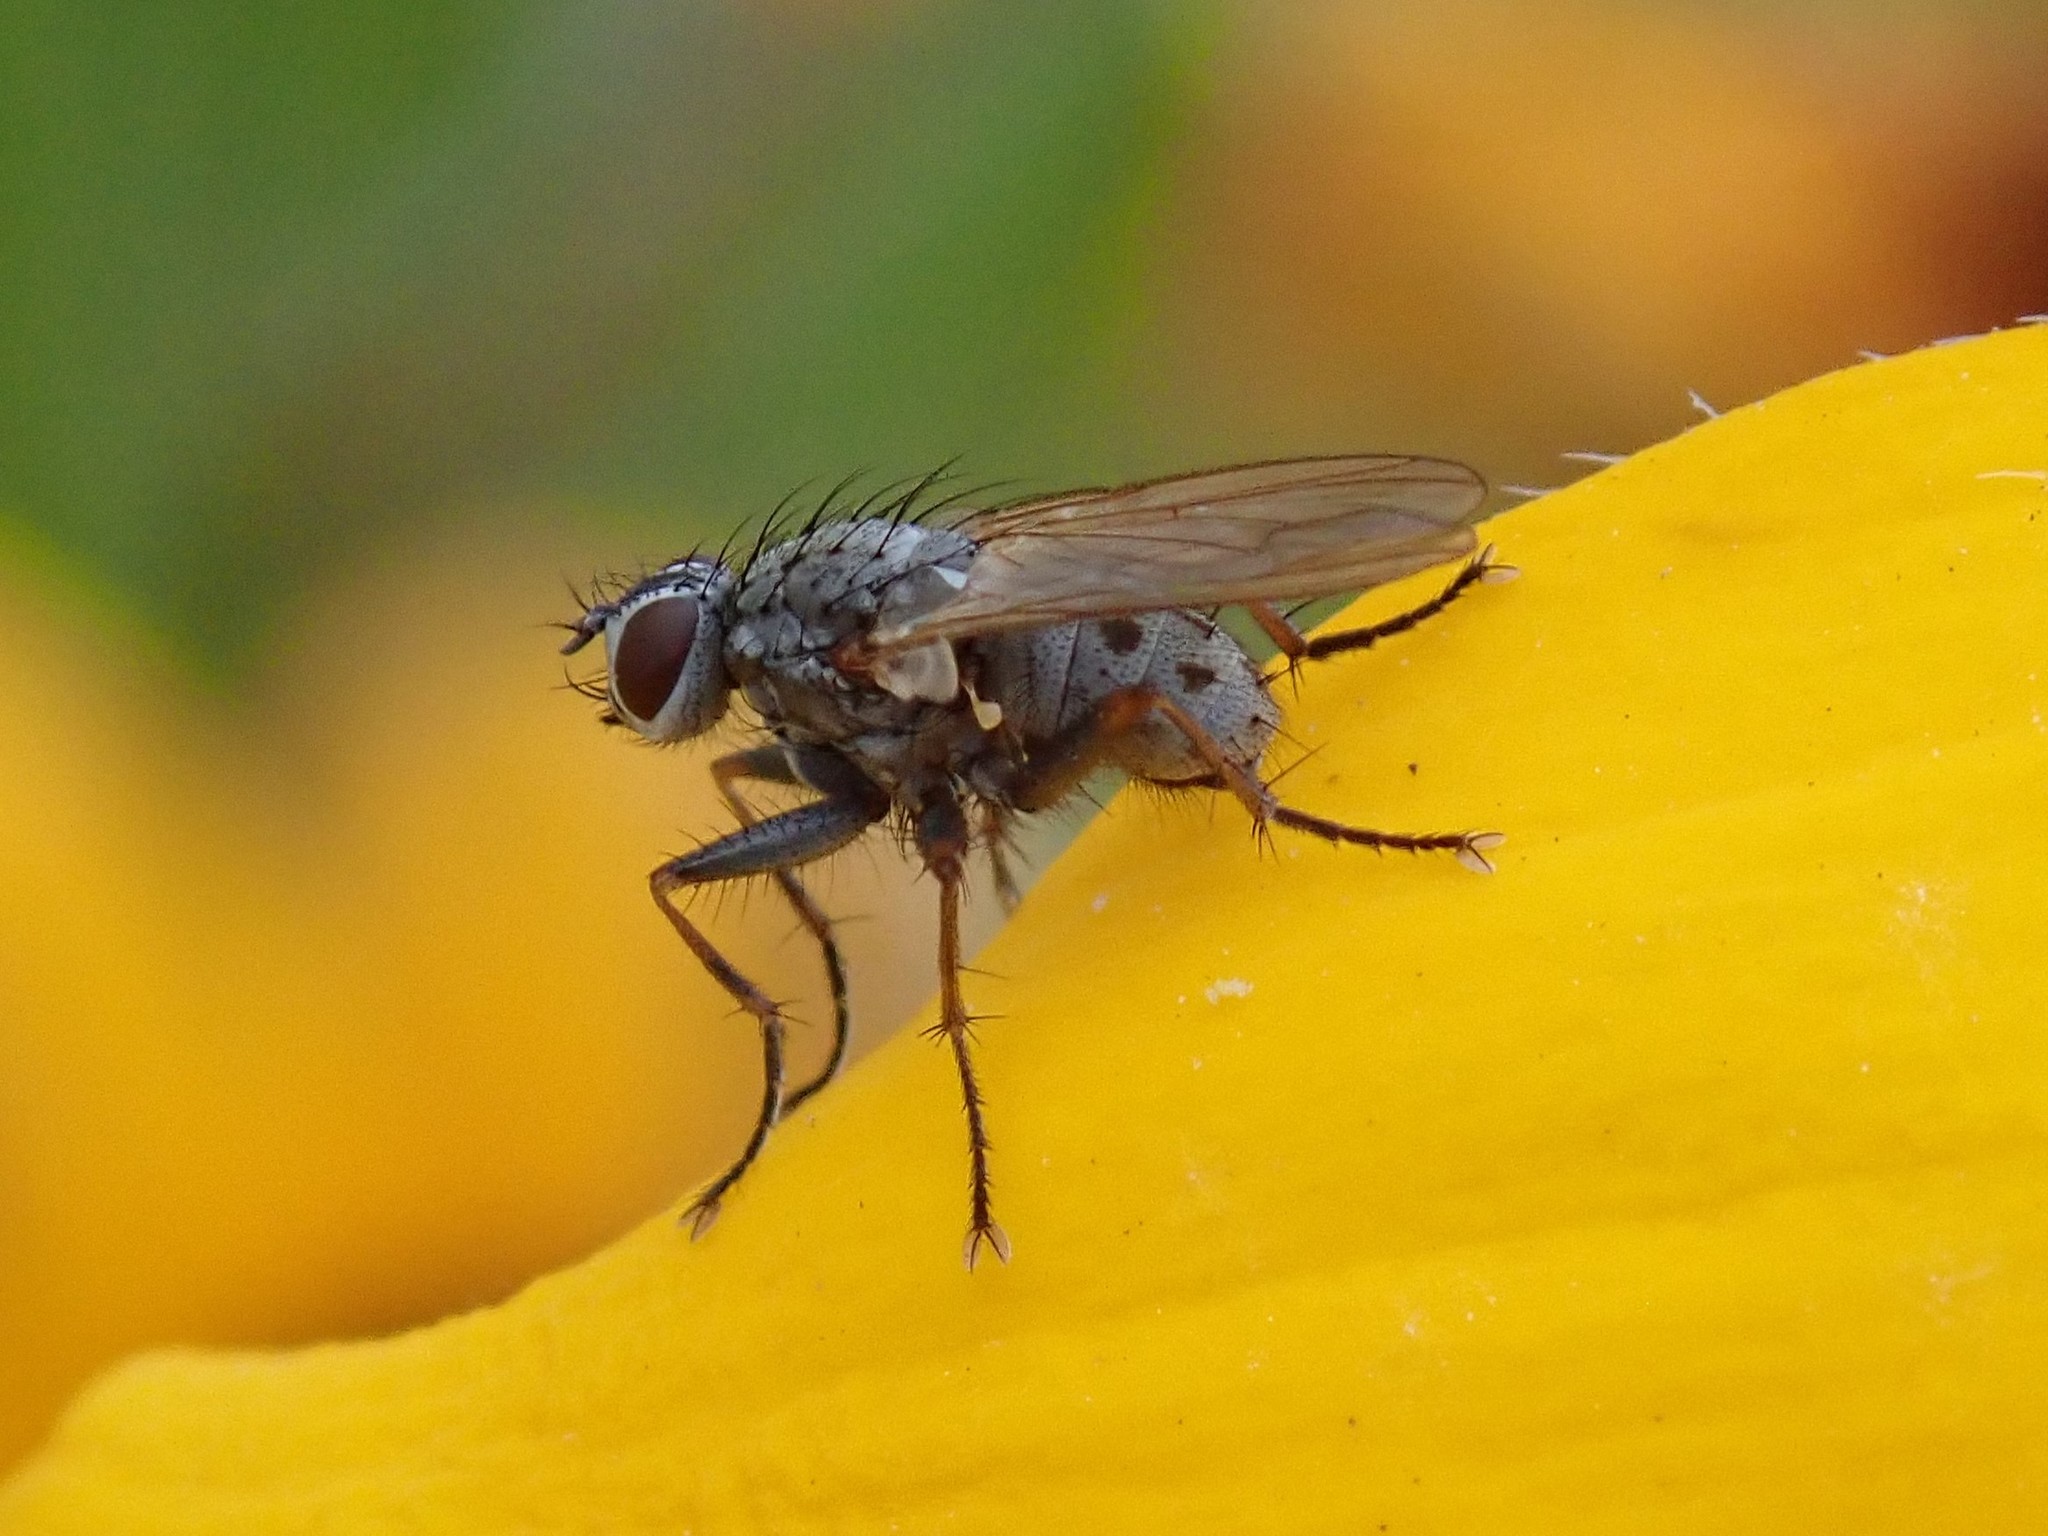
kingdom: Animalia
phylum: Arthropoda
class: Insecta
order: Diptera
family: Muscidae
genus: Coenosia
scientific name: Coenosia tigrina
